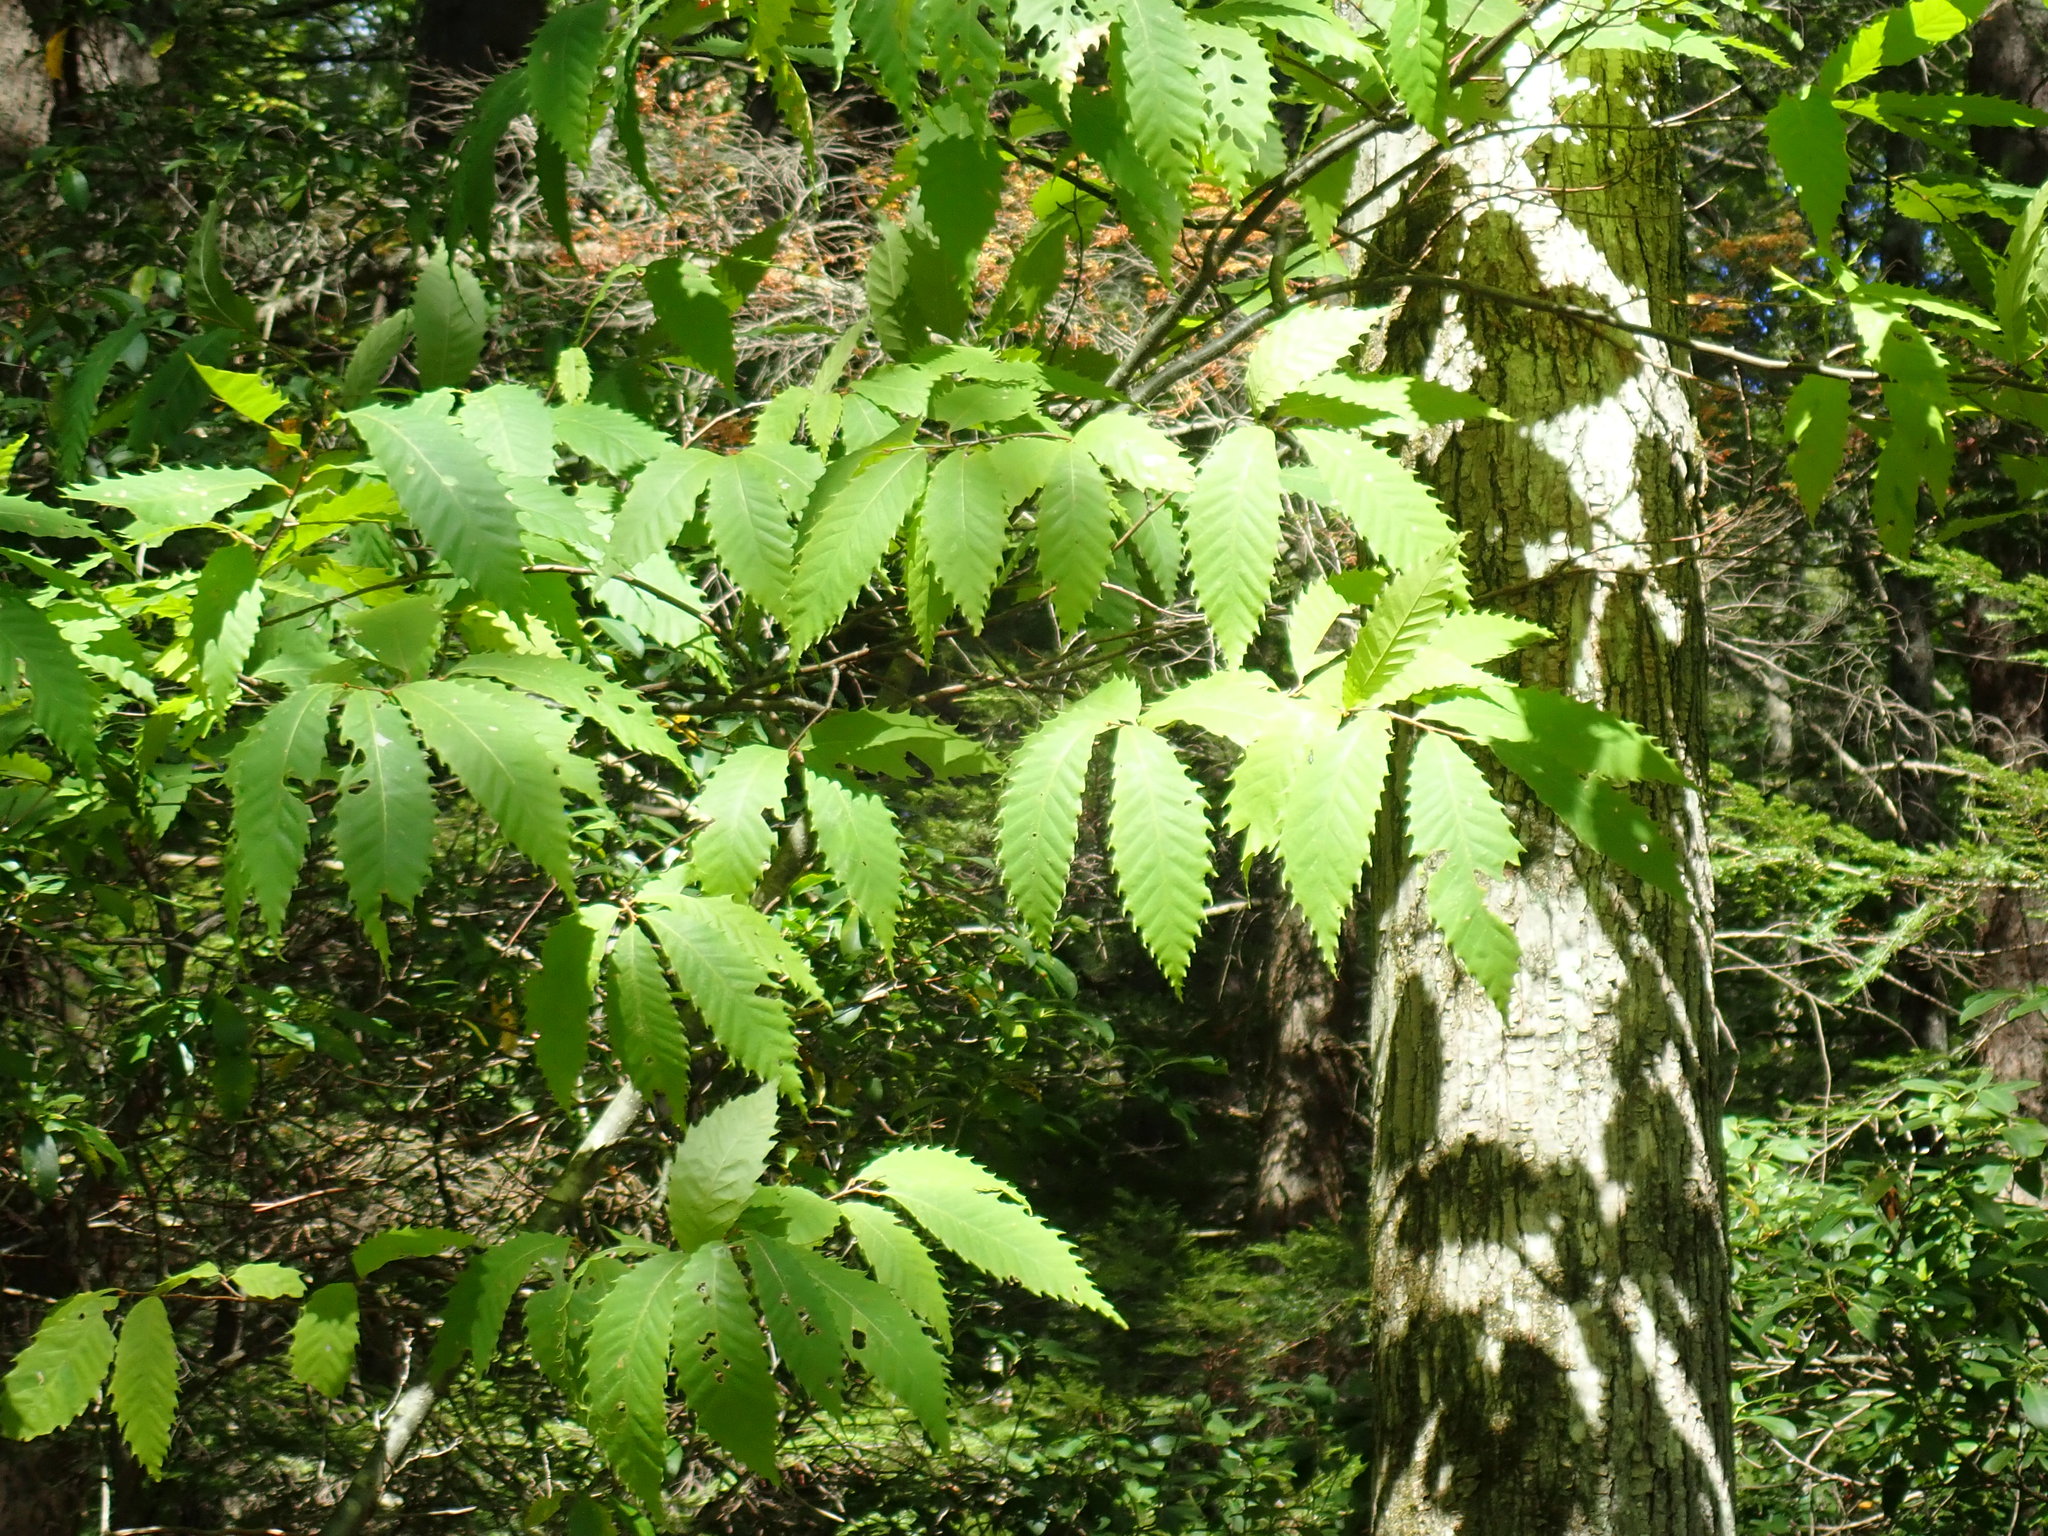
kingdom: Plantae
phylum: Tracheophyta
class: Magnoliopsida
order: Fagales
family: Fagaceae
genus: Castanea
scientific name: Castanea dentata
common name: American chestnut
